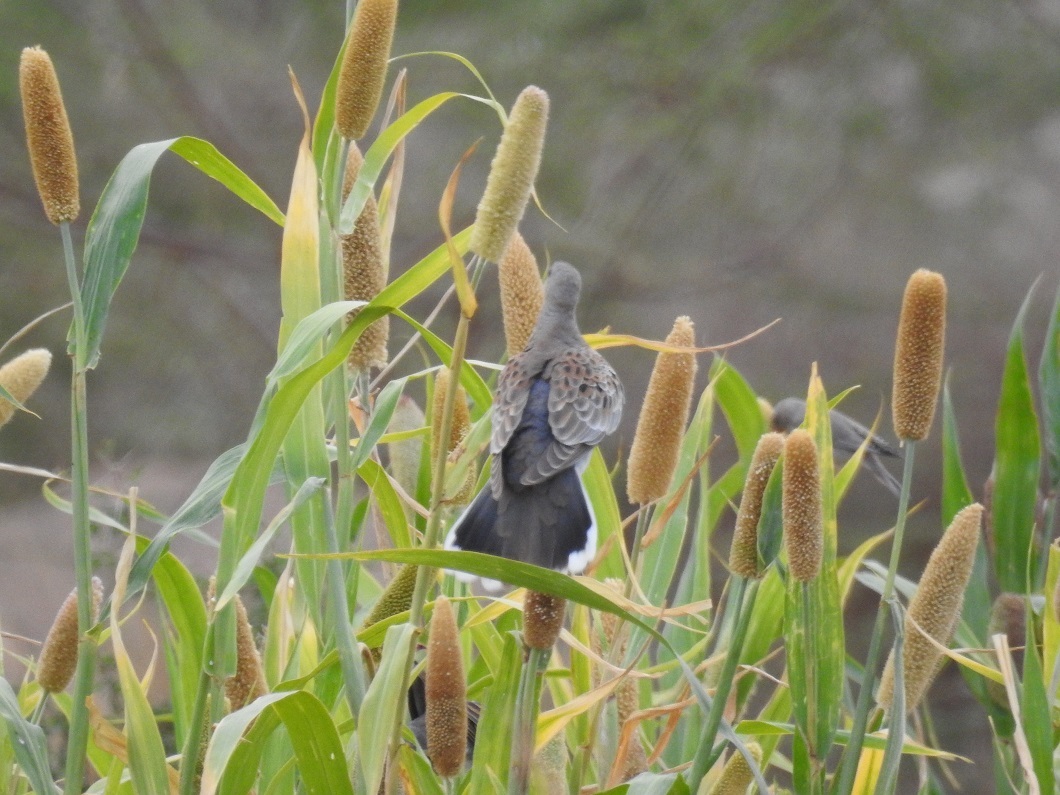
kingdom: Animalia
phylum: Chordata
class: Aves
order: Columbiformes
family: Columbidae
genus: Streptopelia
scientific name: Streptopelia turtur
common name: European turtle dove
